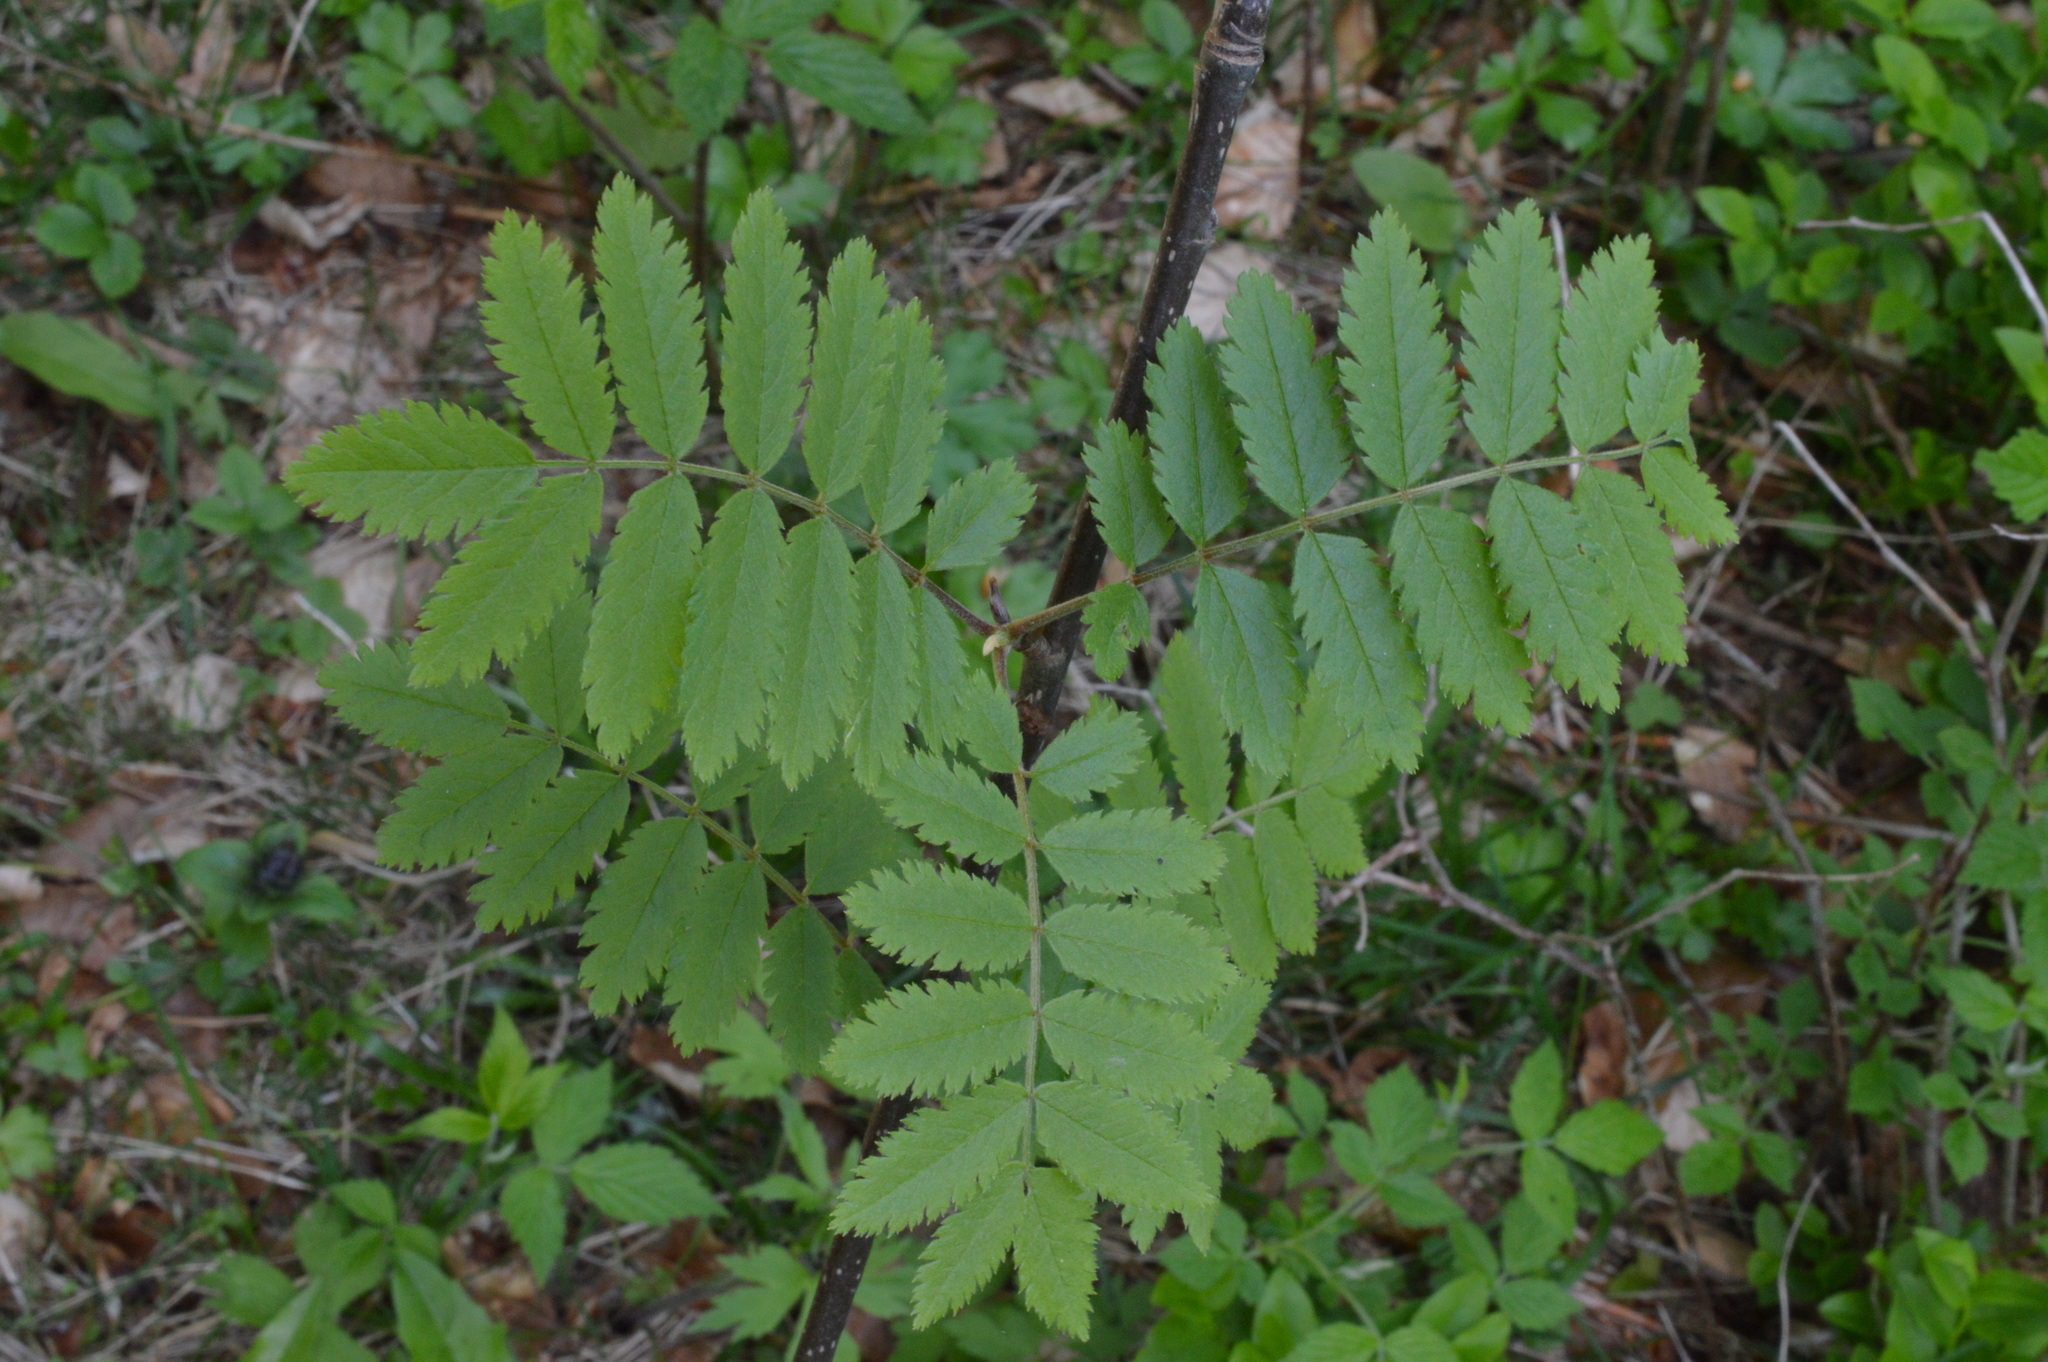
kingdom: Plantae
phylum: Tracheophyta
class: Magnoliopsida
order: Rosales
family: Rosaceae
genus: Sorbus
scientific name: Sorbus aucuparia
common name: Rowan
